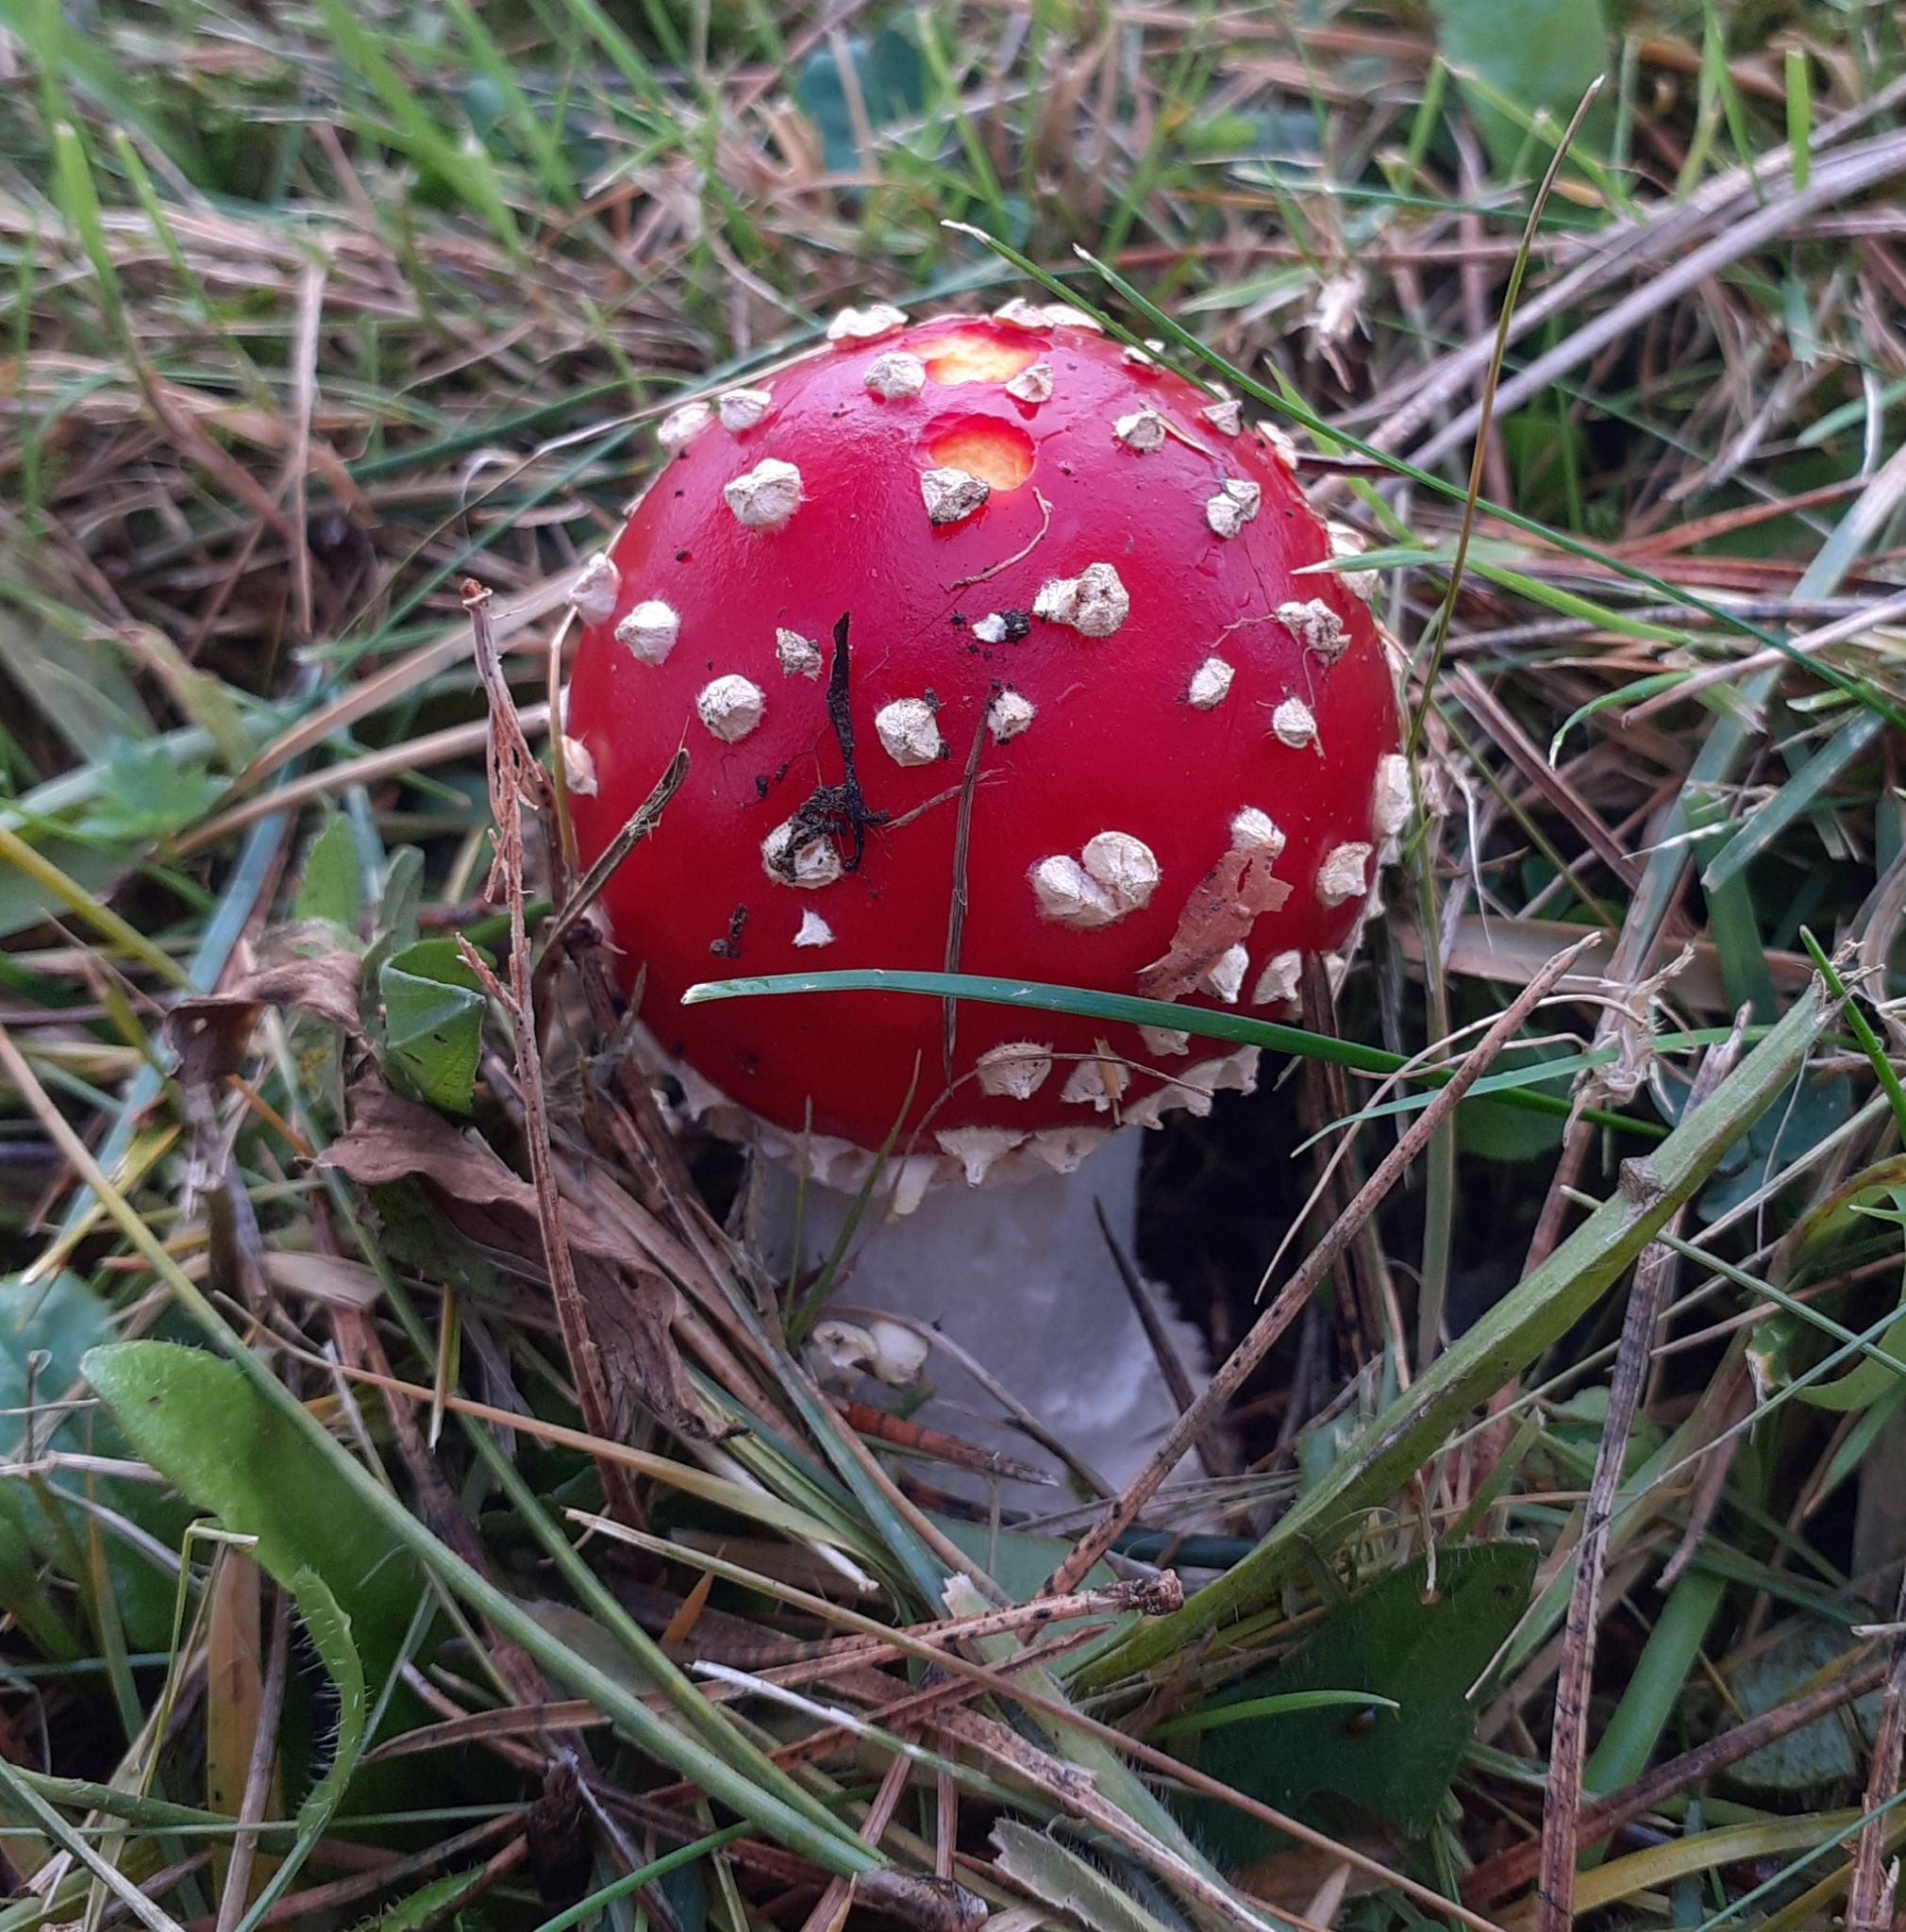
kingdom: Fungi
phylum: Basidiomycota
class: Agaricomycetes
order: Agaricales
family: Amanitaceae
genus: Amanita
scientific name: Amanita muscaria
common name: Fly agaric
